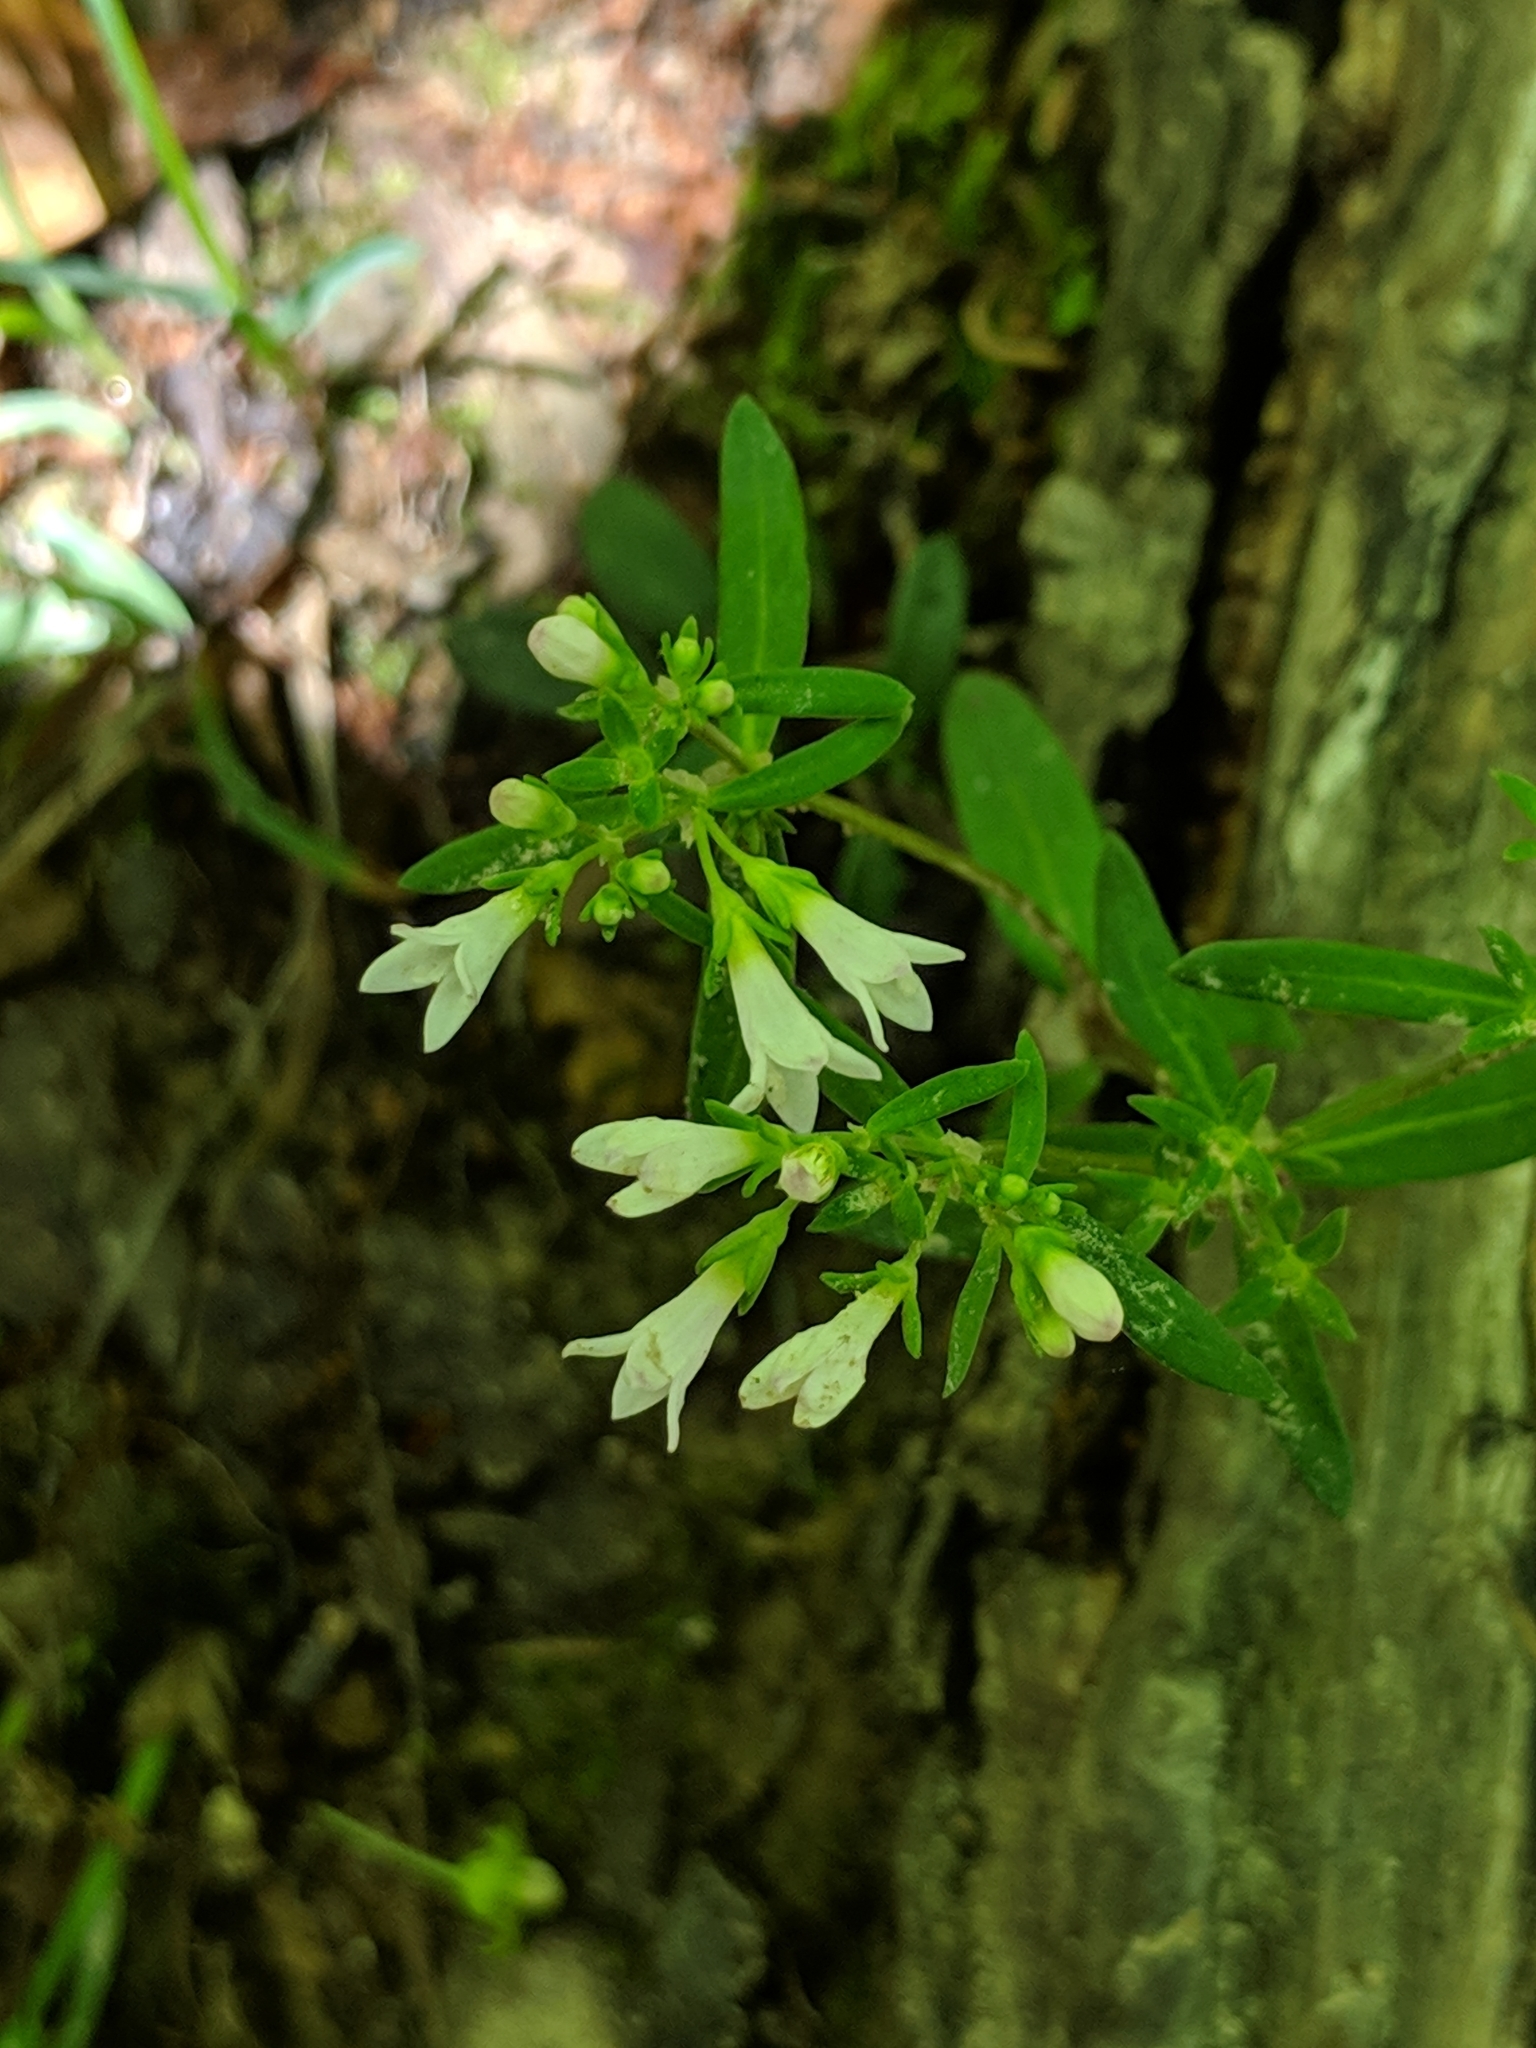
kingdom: Plantae
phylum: Tracheophyta
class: Magnoliopsida
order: Gentianales
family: Rubiaceae
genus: Houstonia
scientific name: Houstonia longifolia
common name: Long-leaved bluets
